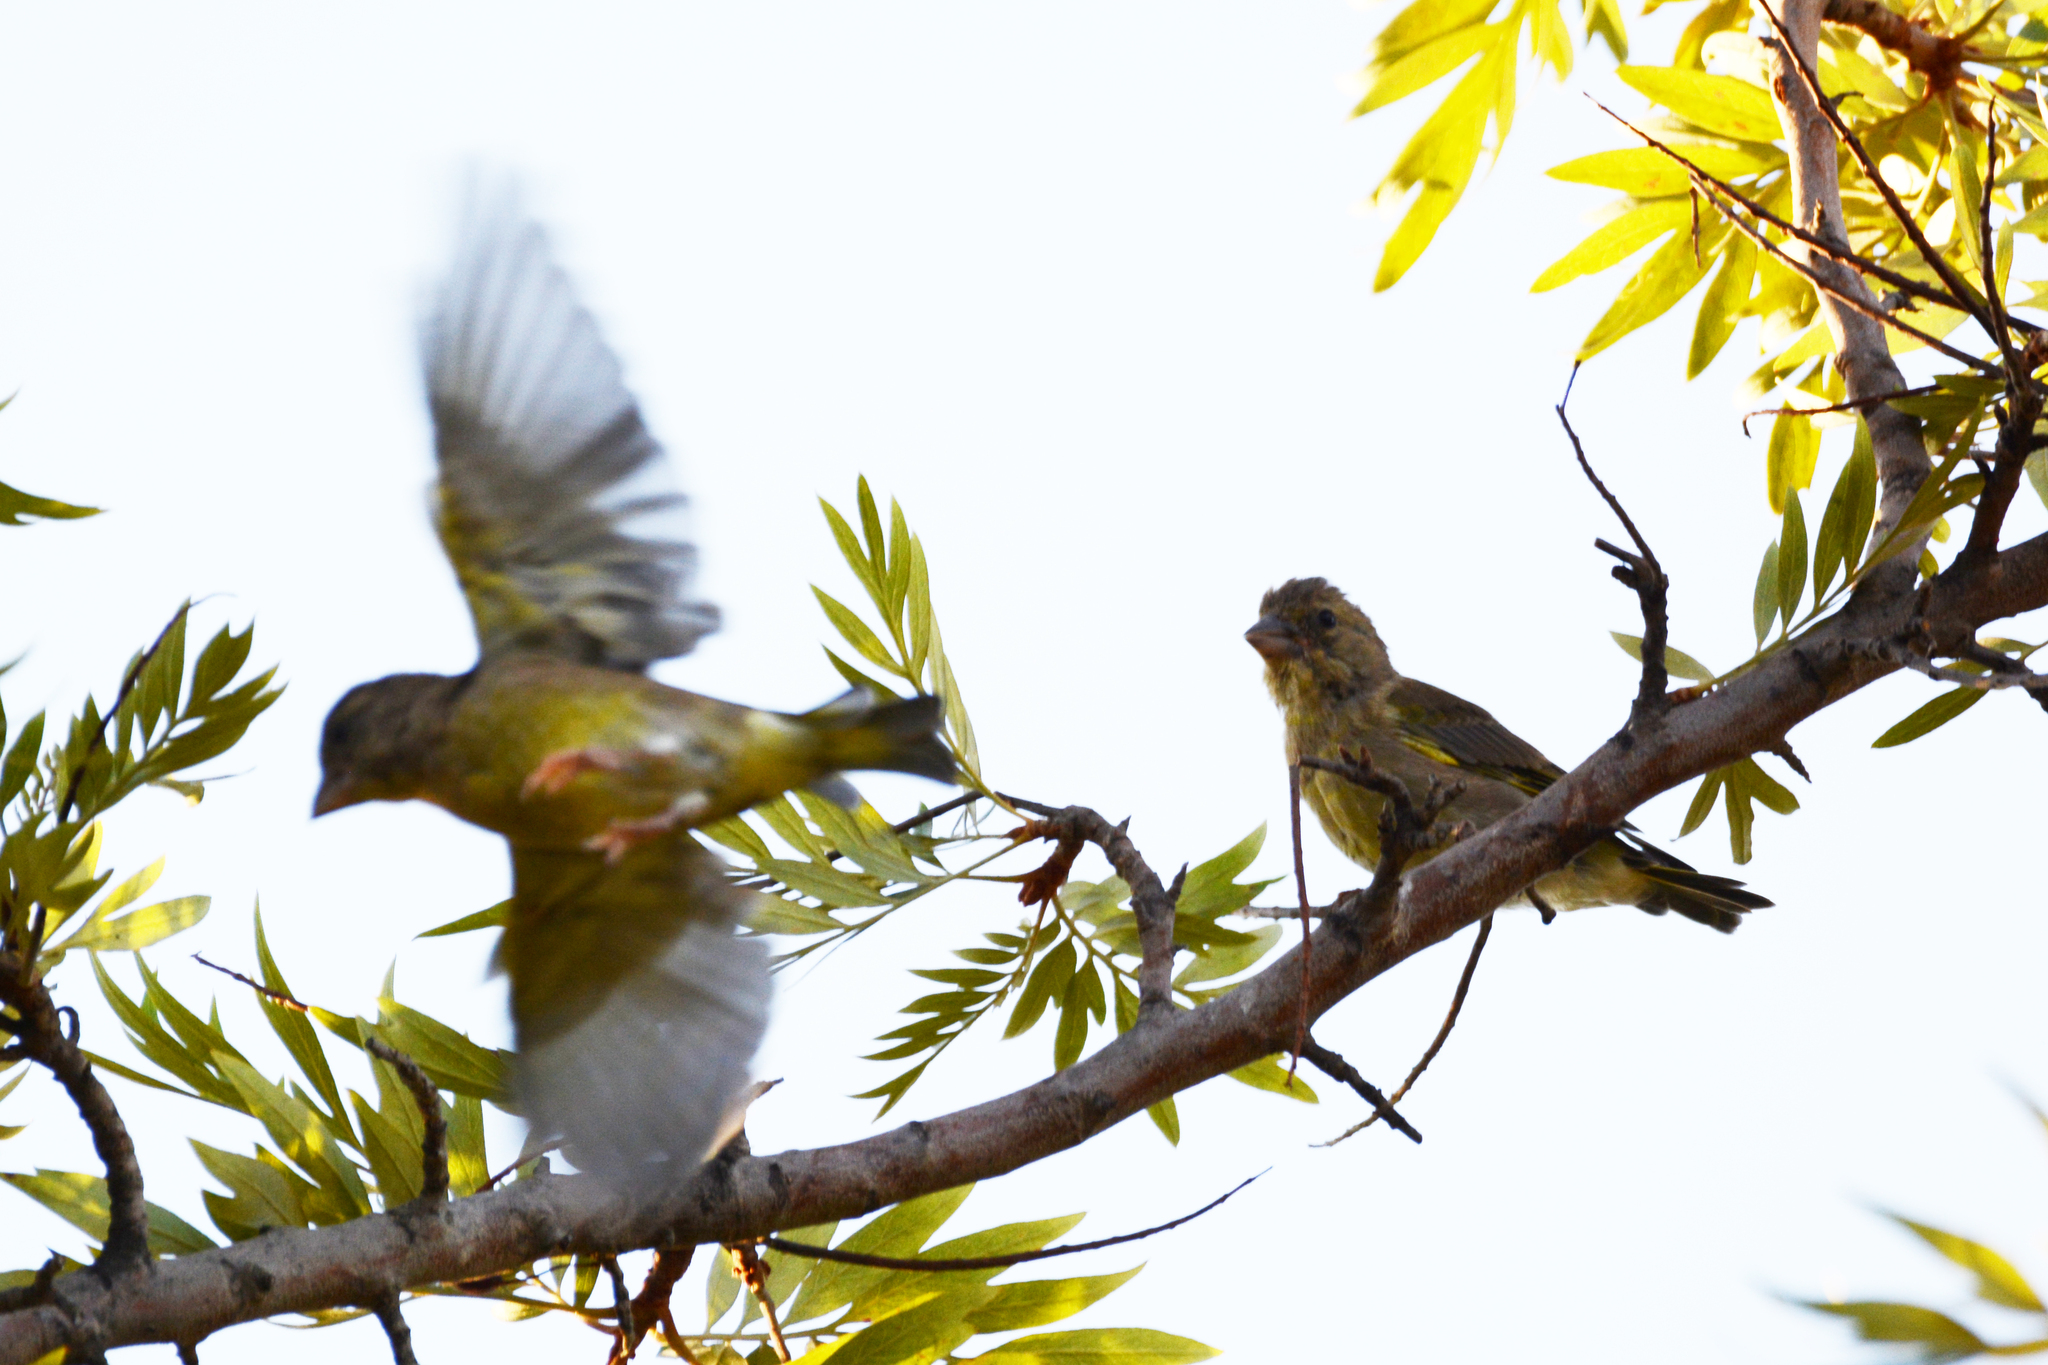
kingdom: Plantae
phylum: Tracheophyta
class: Liliopsida
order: Poales
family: Poaceae
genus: Chloris
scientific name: Chloris chloris
